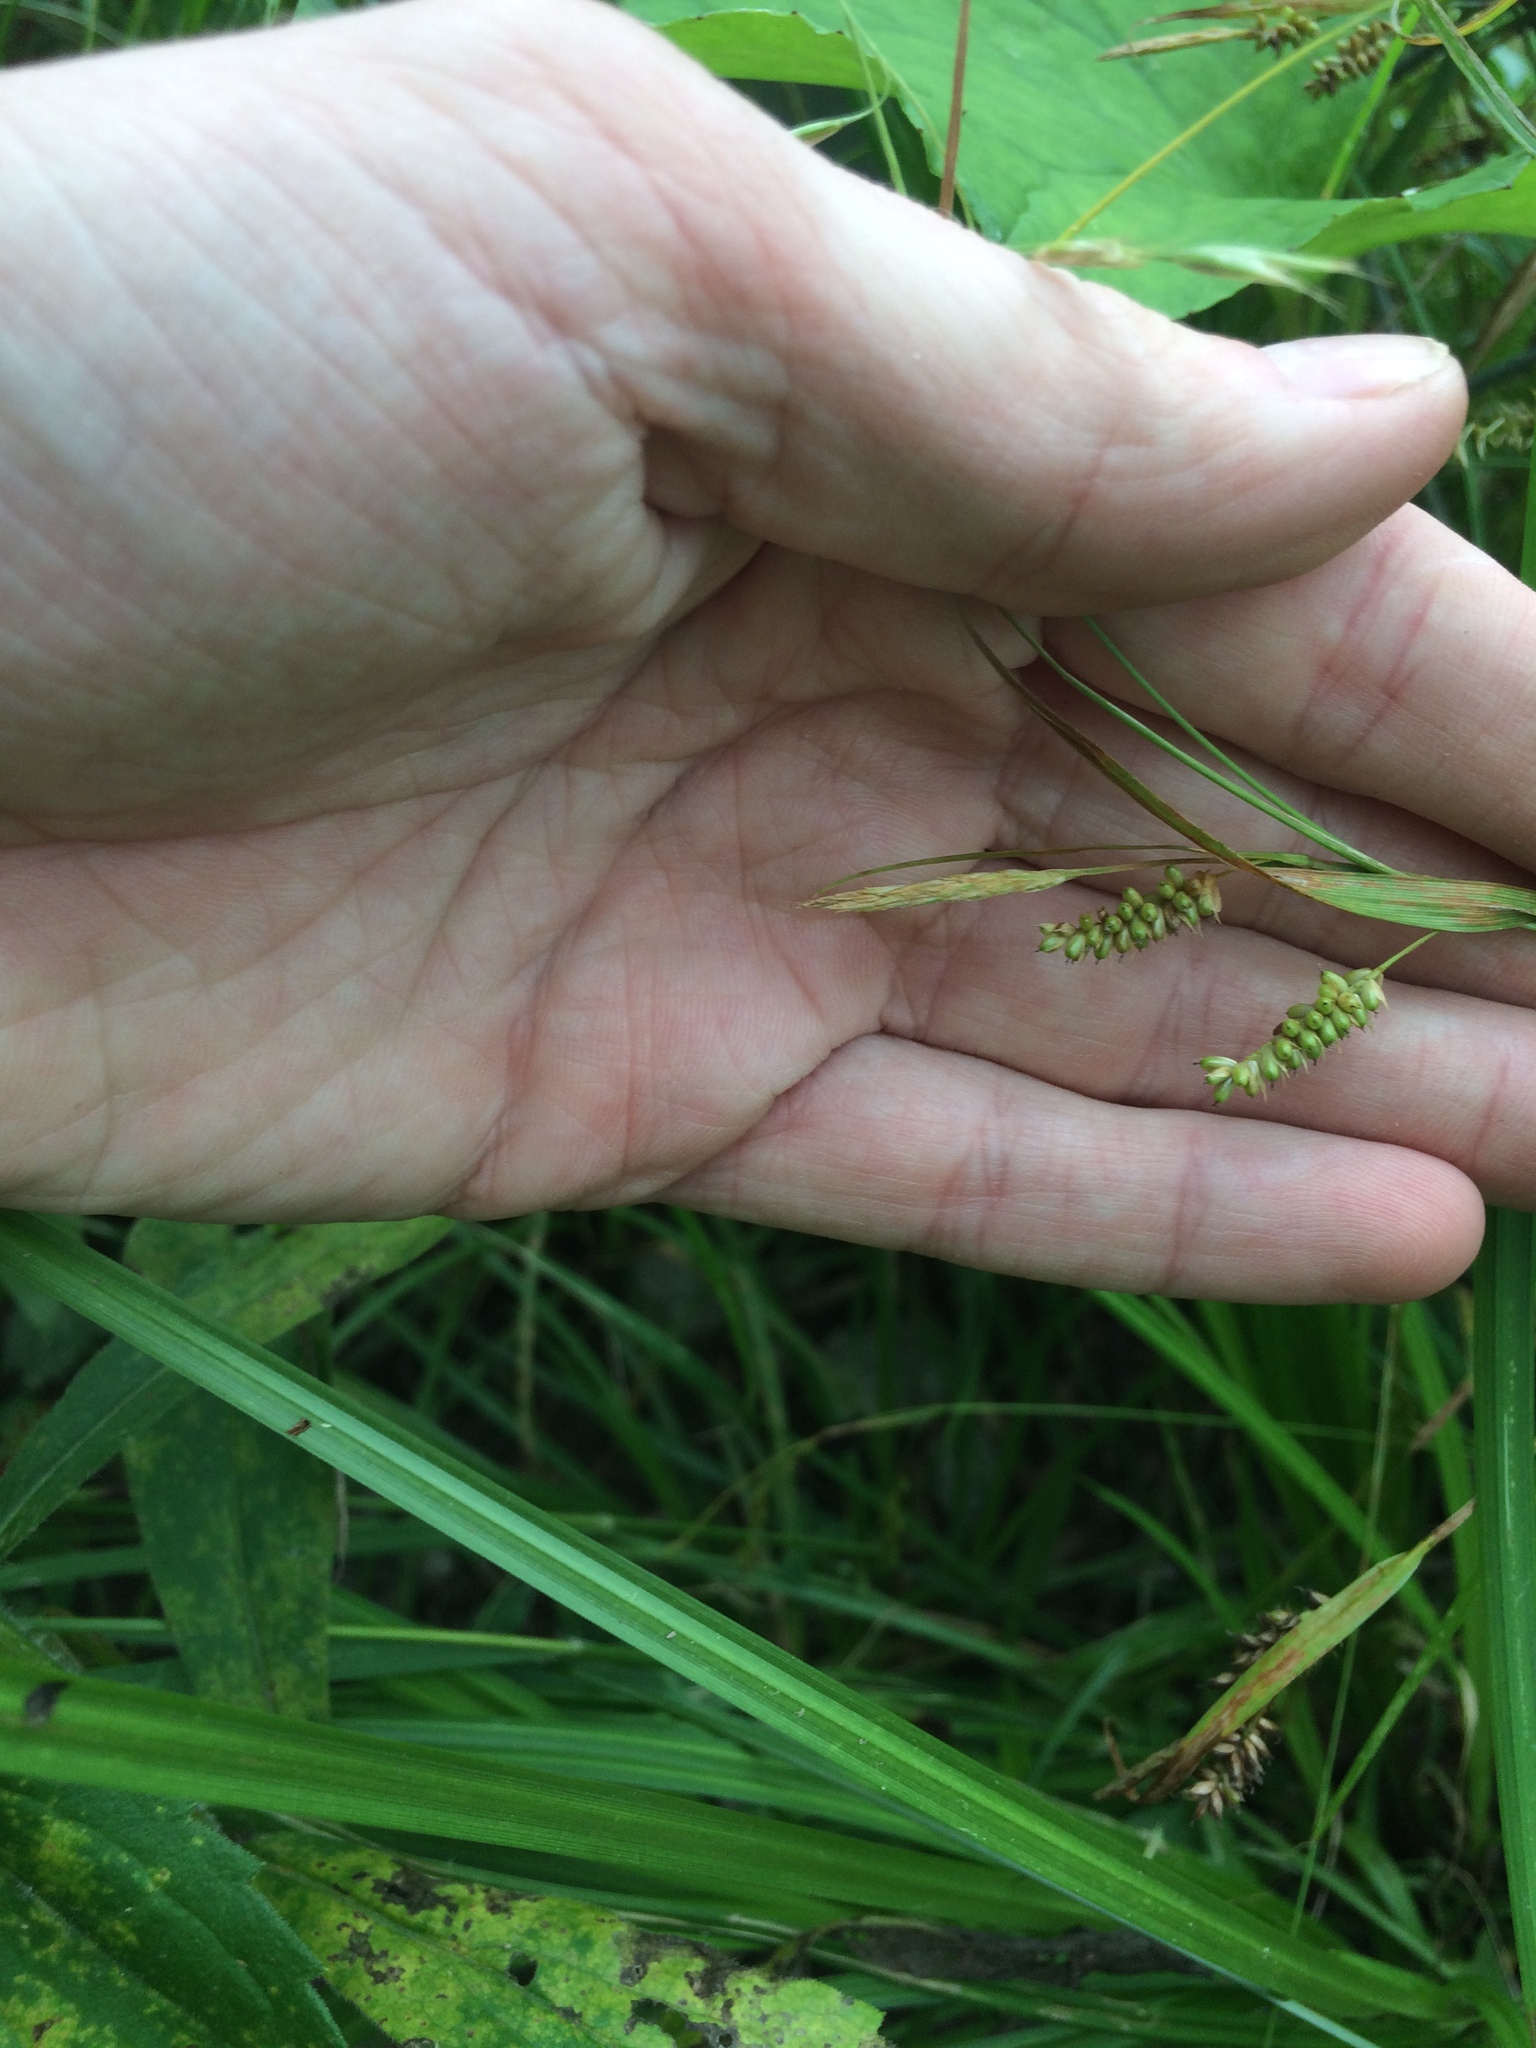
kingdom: Plantae
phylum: Tracheophyta
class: Liliopsida
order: Poales
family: Cyperaceae
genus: Carex
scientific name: Carex pallescens
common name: Pale sedge
